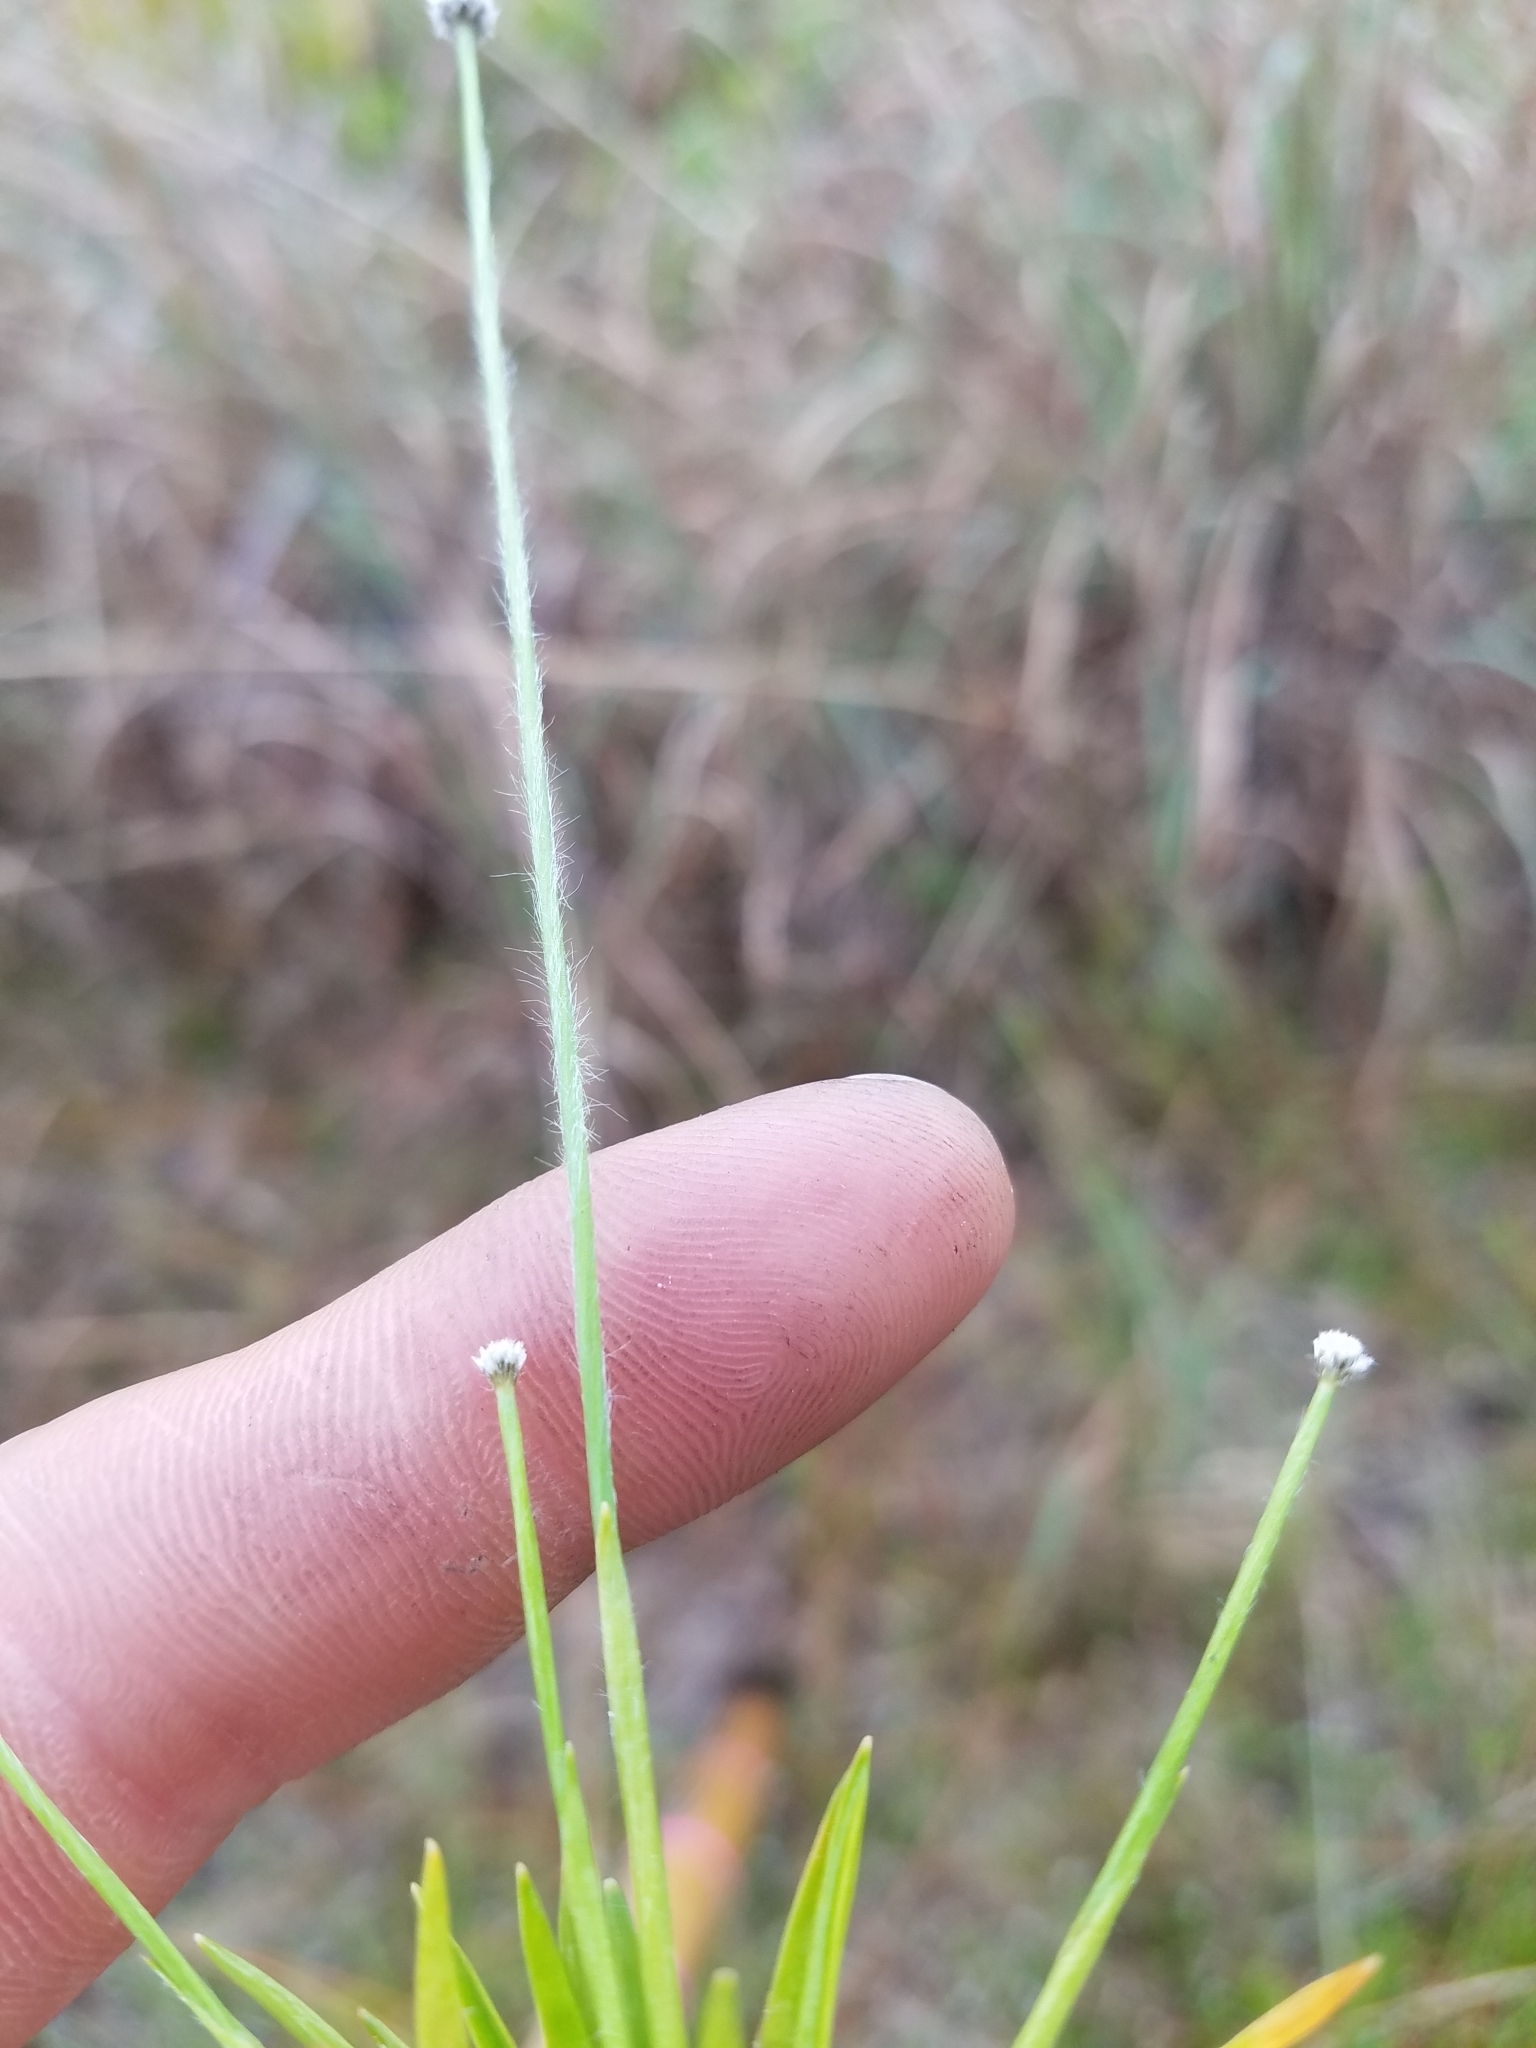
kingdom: Plantae
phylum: Tracheophyta
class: Liliopsida
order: Poales
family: Eriocaulaceae
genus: Paepalanthus
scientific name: Paepalanthus anceps
